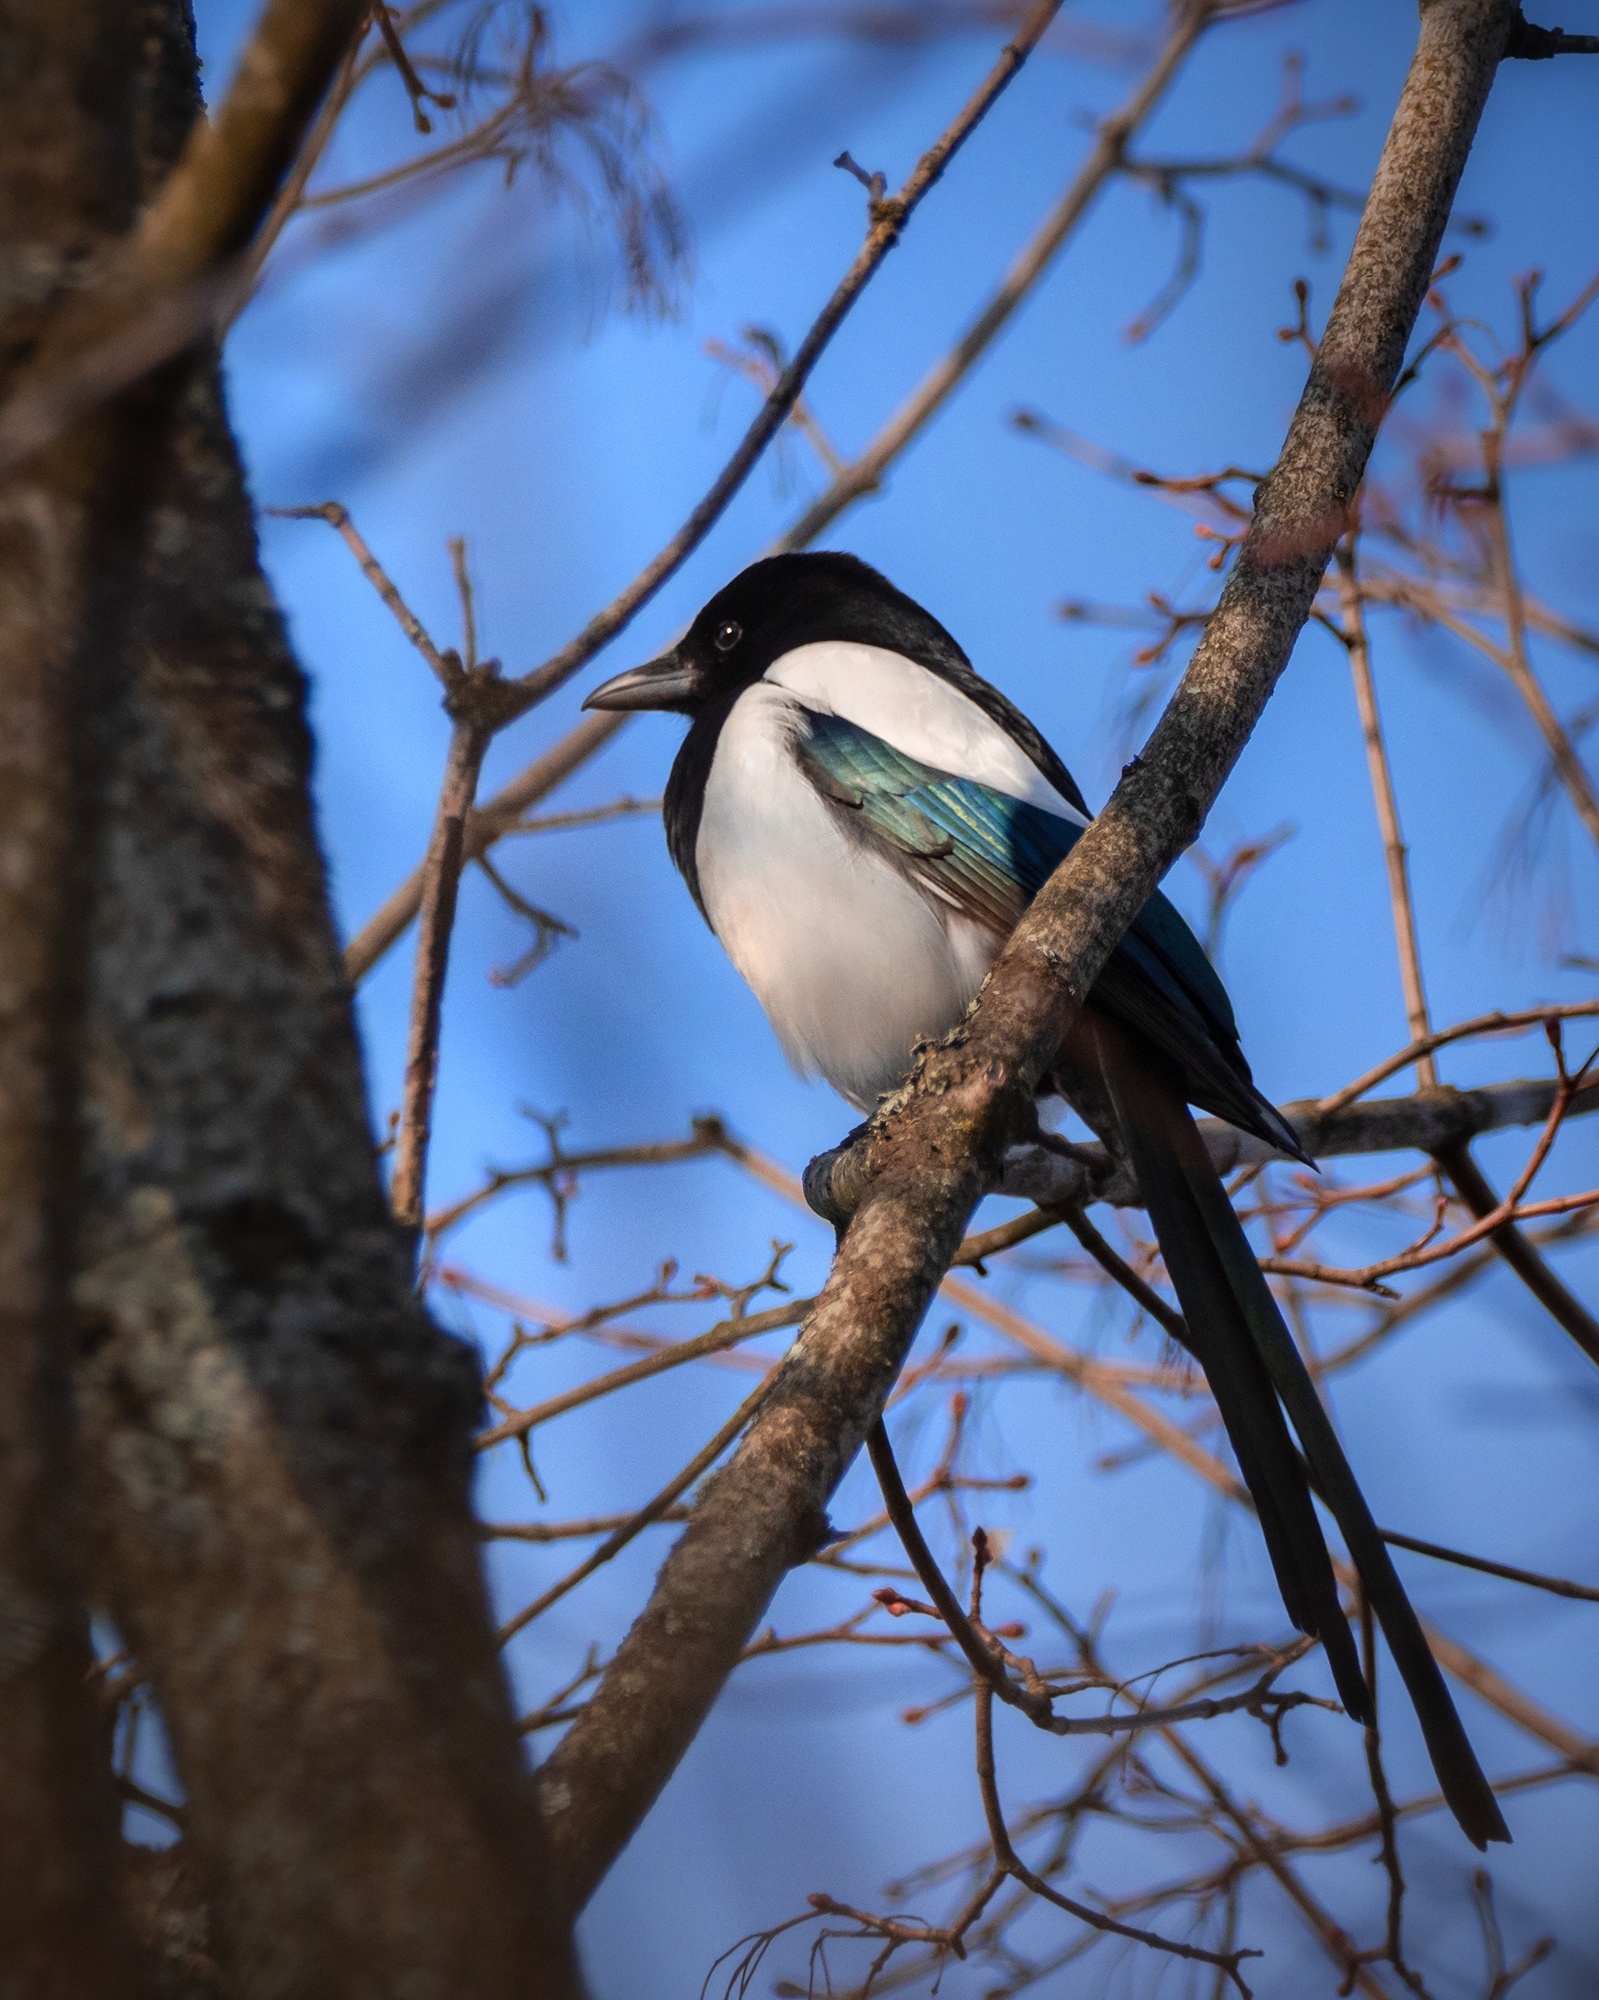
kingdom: Animalia
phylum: Chordata
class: Aves
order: Passeriformes
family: Corvidae
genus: Pica
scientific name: Pica pica
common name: Eurasian magpie
